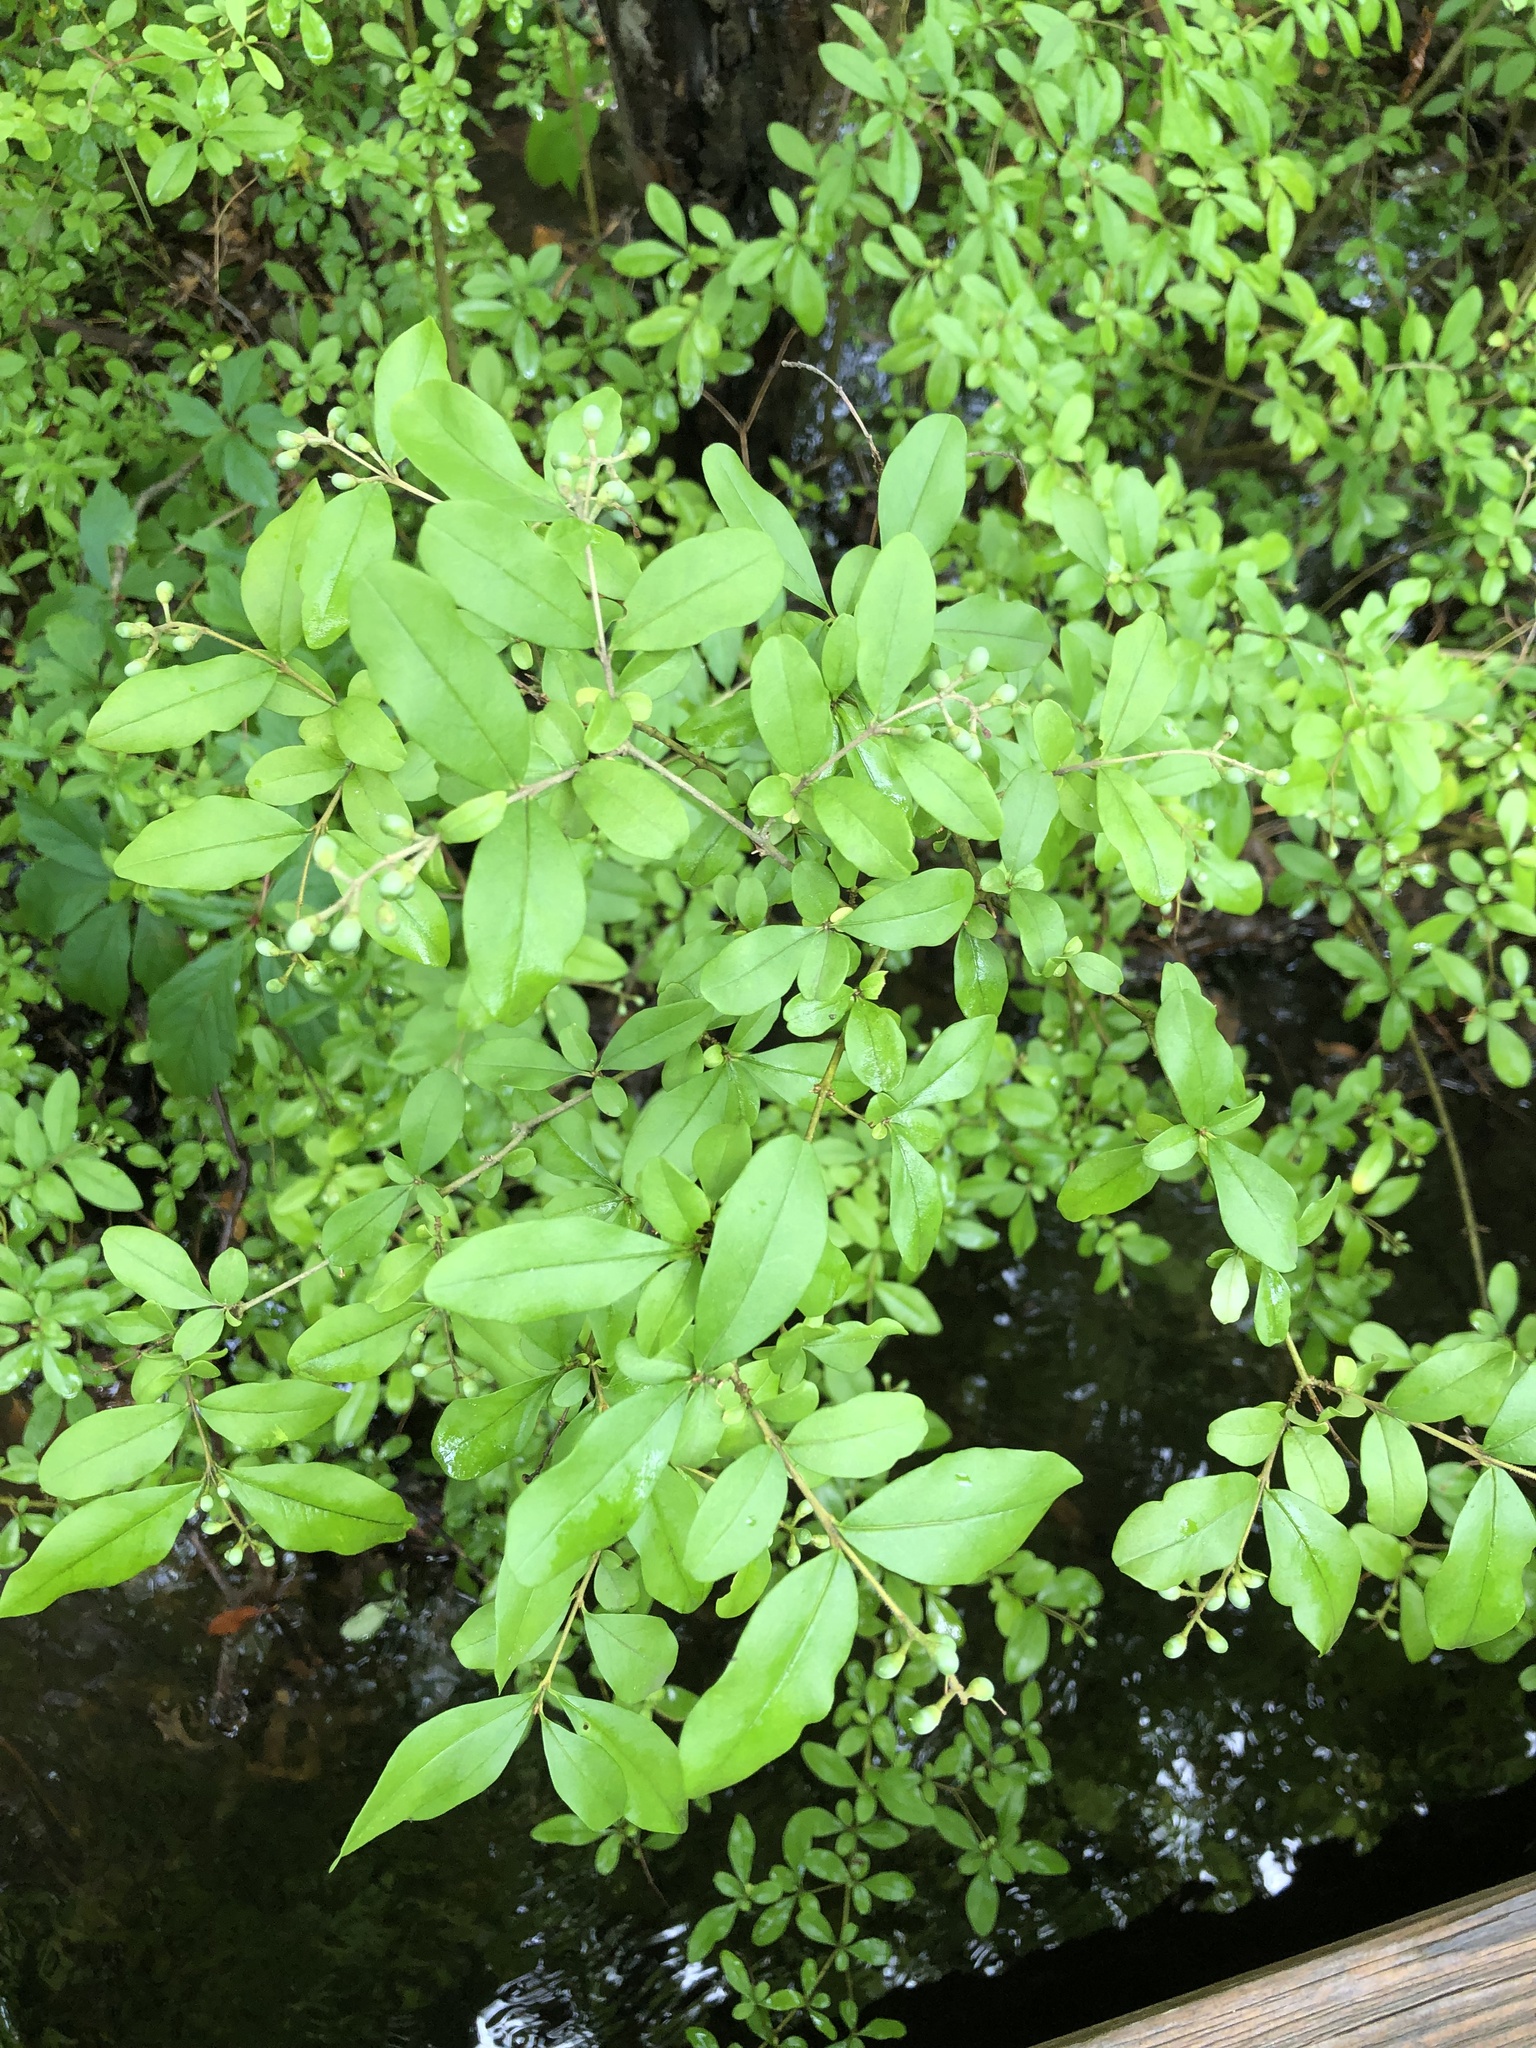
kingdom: Plantae
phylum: Tracheophyta
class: Magnoliopsida
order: Lamiales
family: Oleaceae
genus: Ligustrum
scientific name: Ligustrum obtusifolium
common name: Border privet
